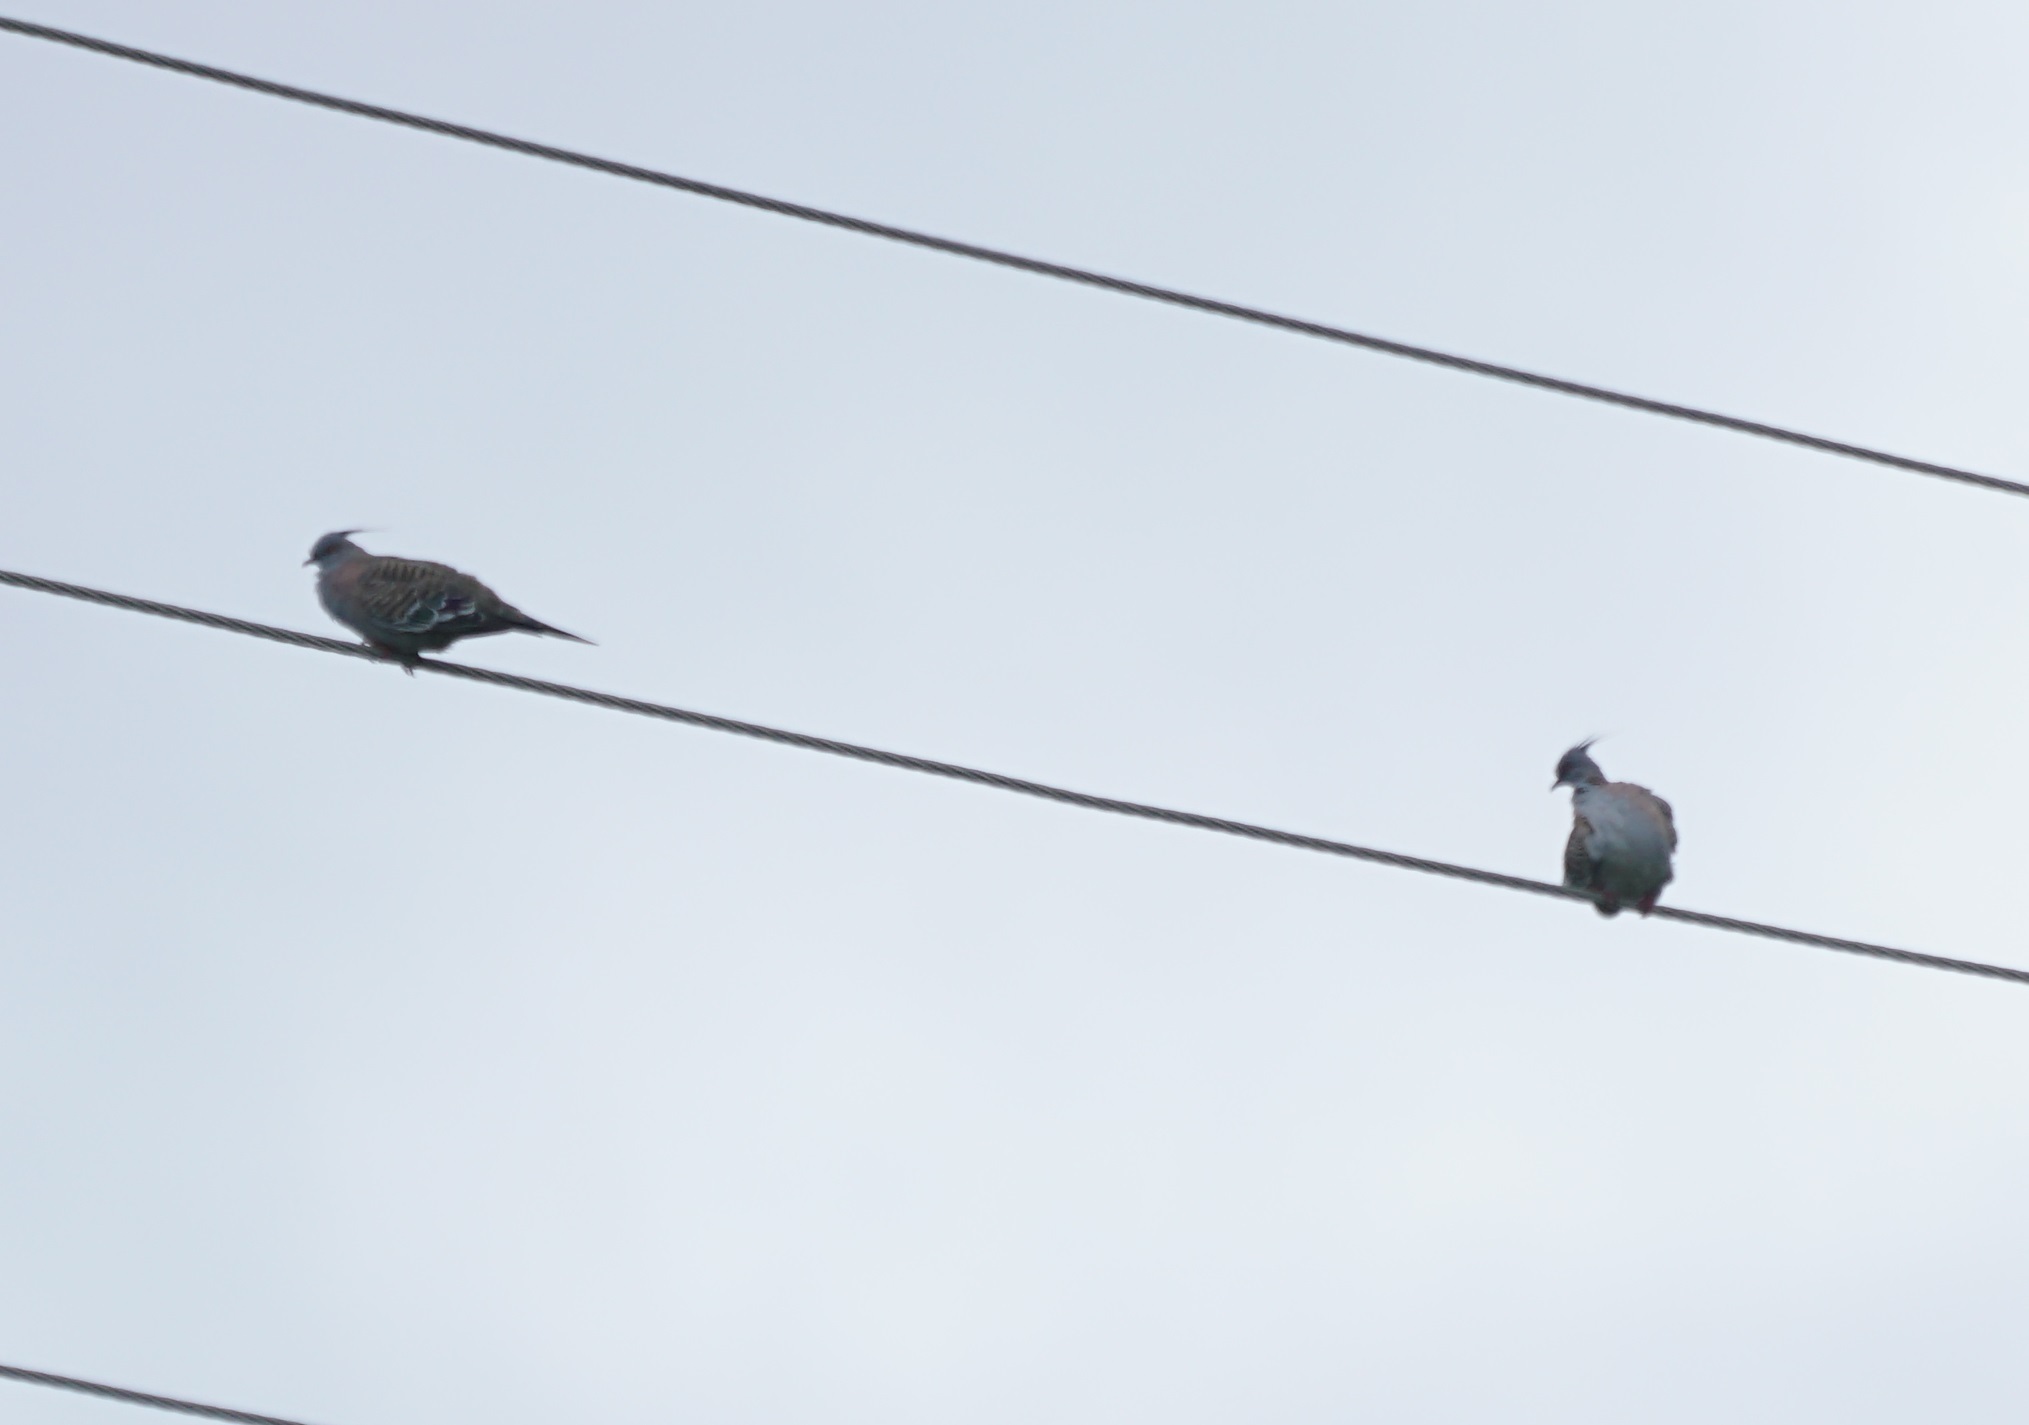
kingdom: Animalia
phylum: Chordata
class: Aves
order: Columbiformes
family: Columbidae
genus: Ocyphaps
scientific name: Ocyphaps lophotes
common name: Crested pigeon
